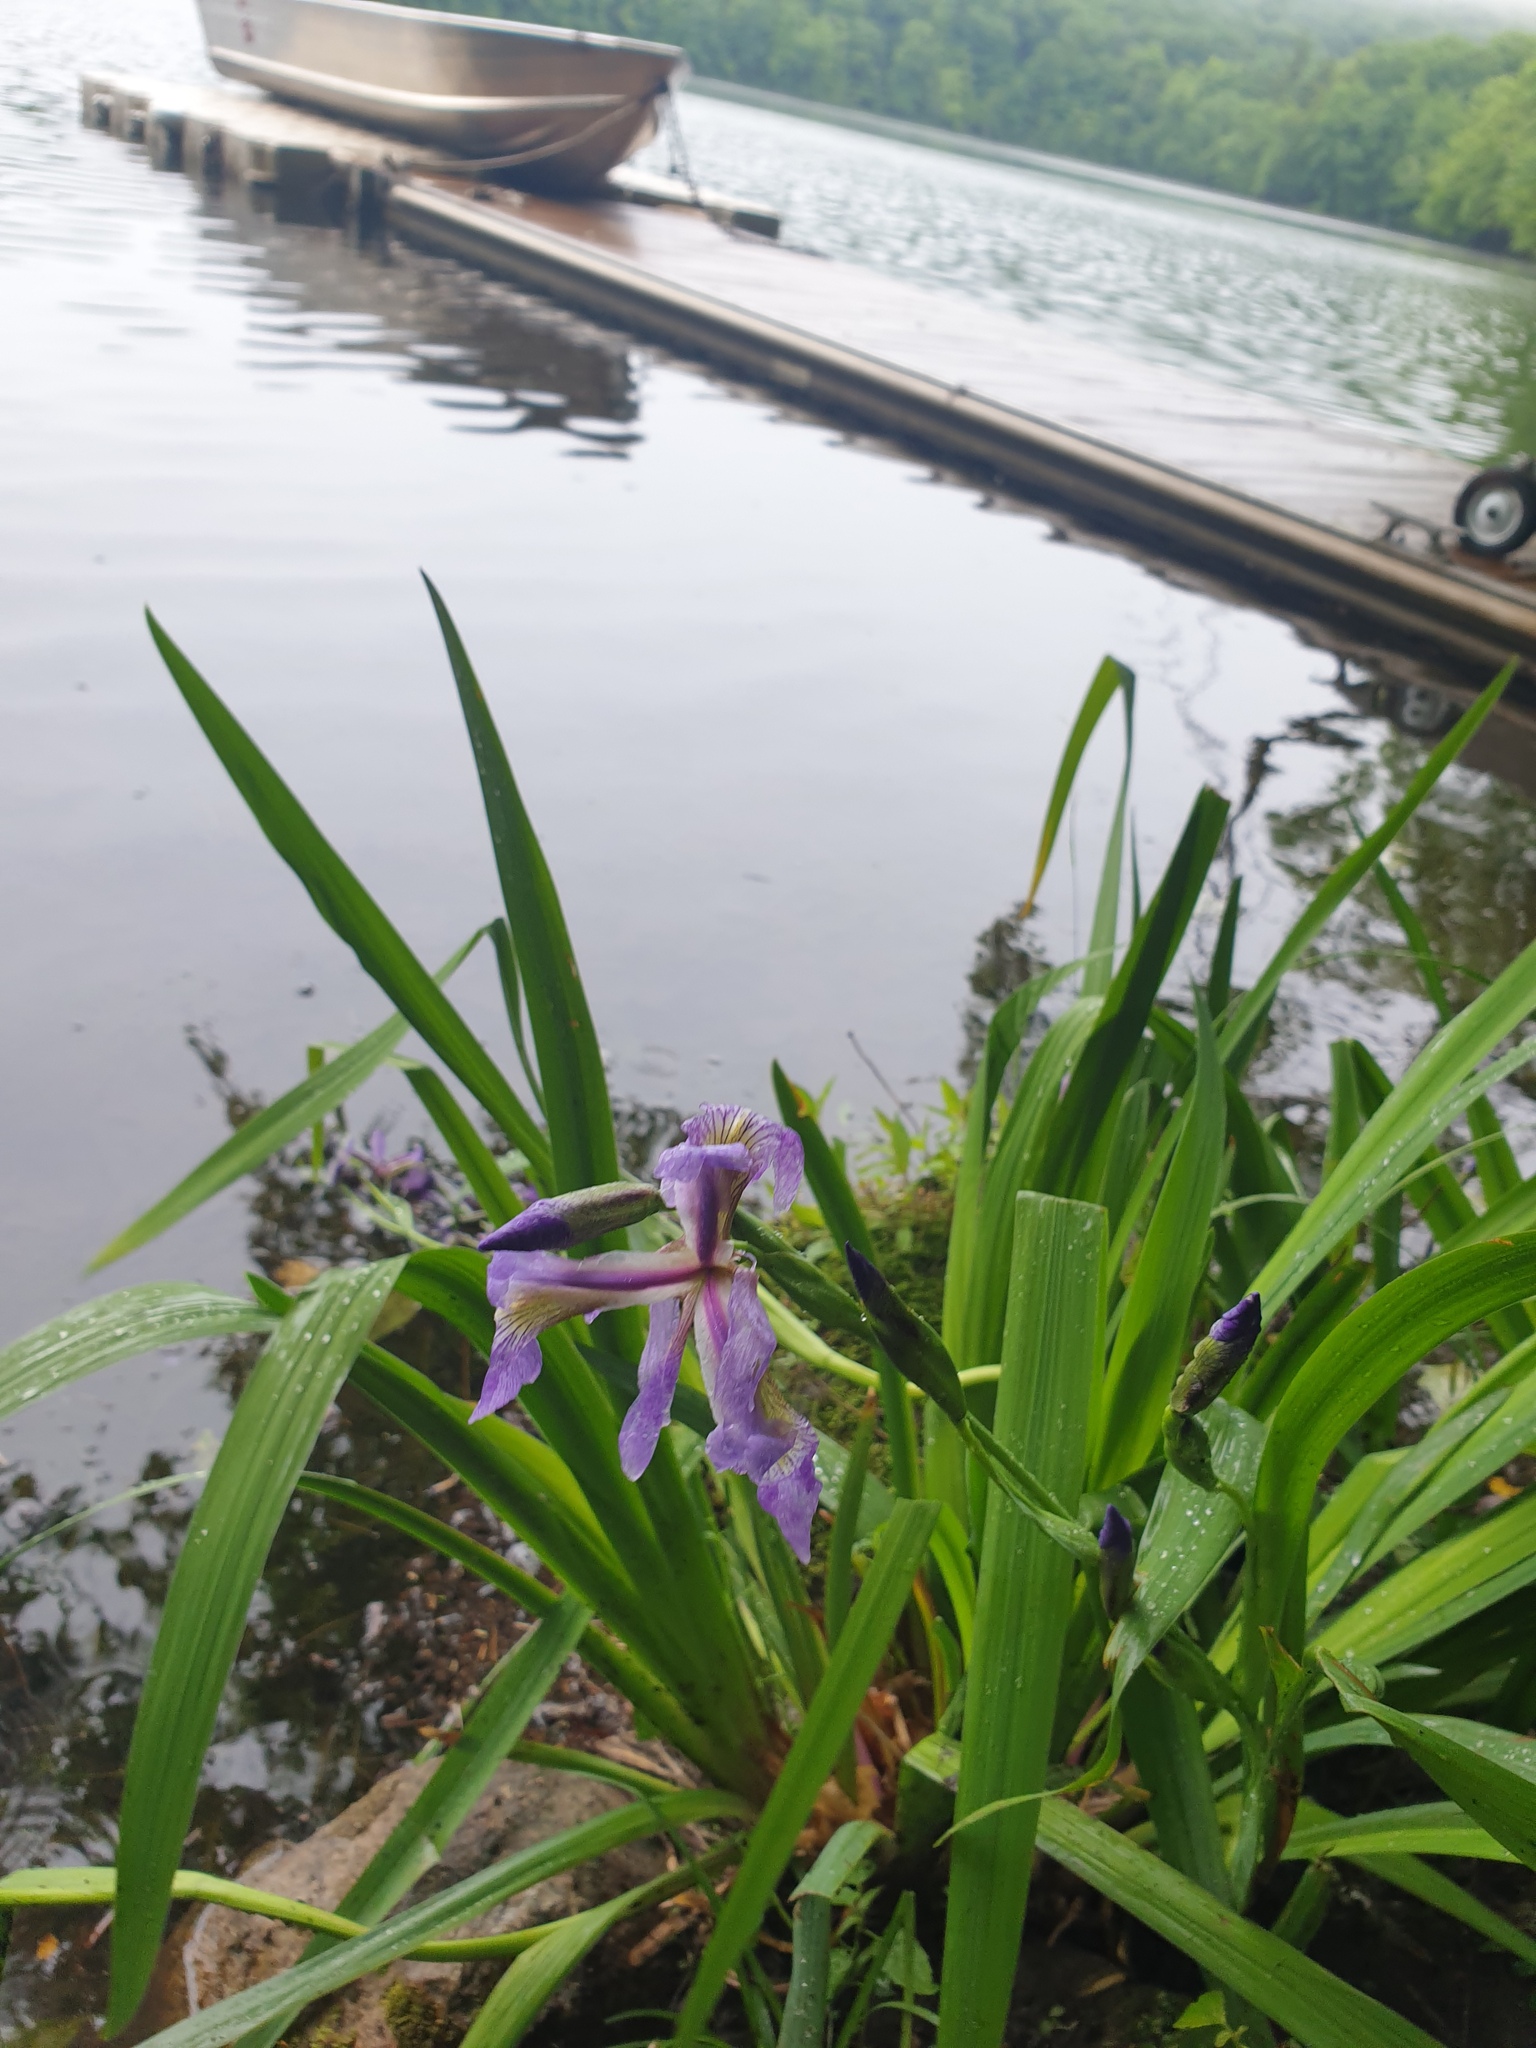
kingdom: Plantae
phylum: Tracheophyta
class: Liliopsida
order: Asparagales
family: Iridaceae
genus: Iris
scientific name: Iris versicolor
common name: Purple iris
